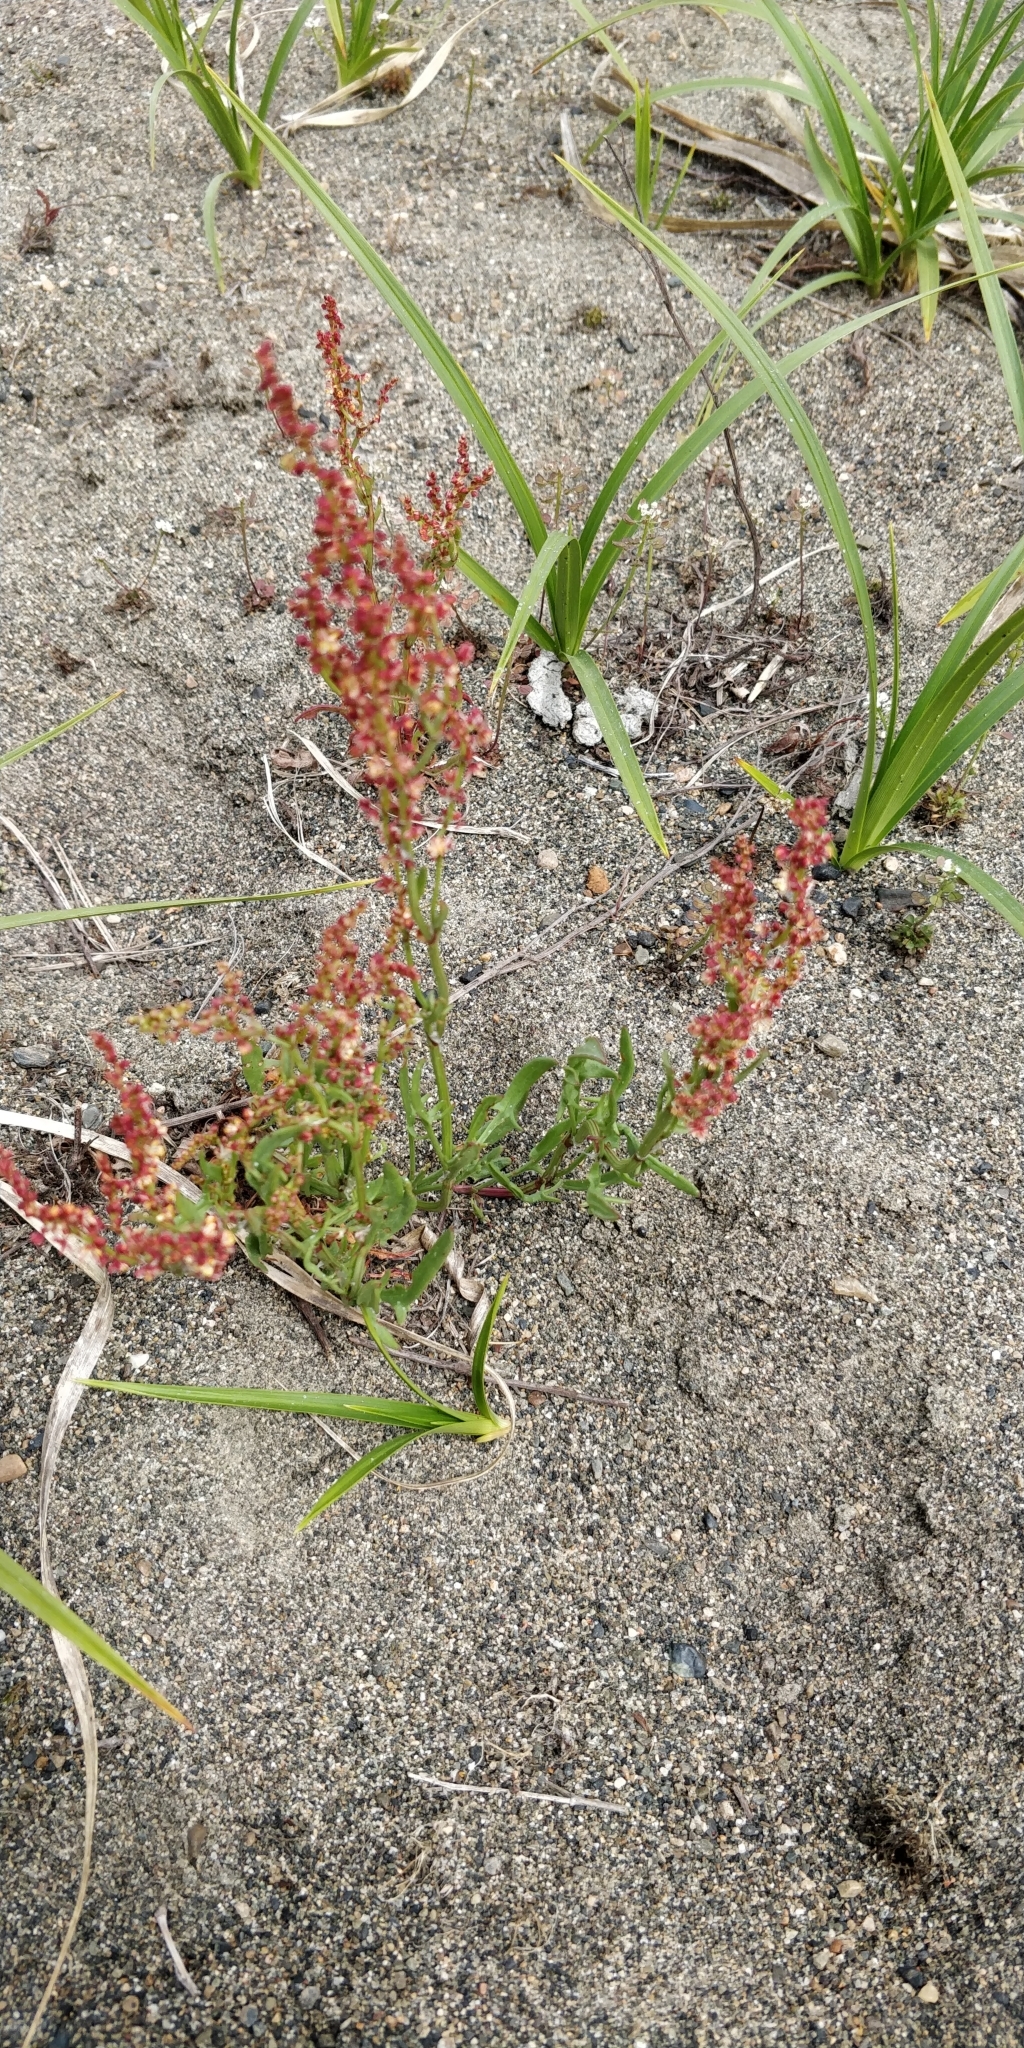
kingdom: Plantae
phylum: Tracheophyta
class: Magnoliopsida
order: Caryophyllales
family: Polygonaceae
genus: Rumex
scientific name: Rumex acetosella
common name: Common sheep sorrel
